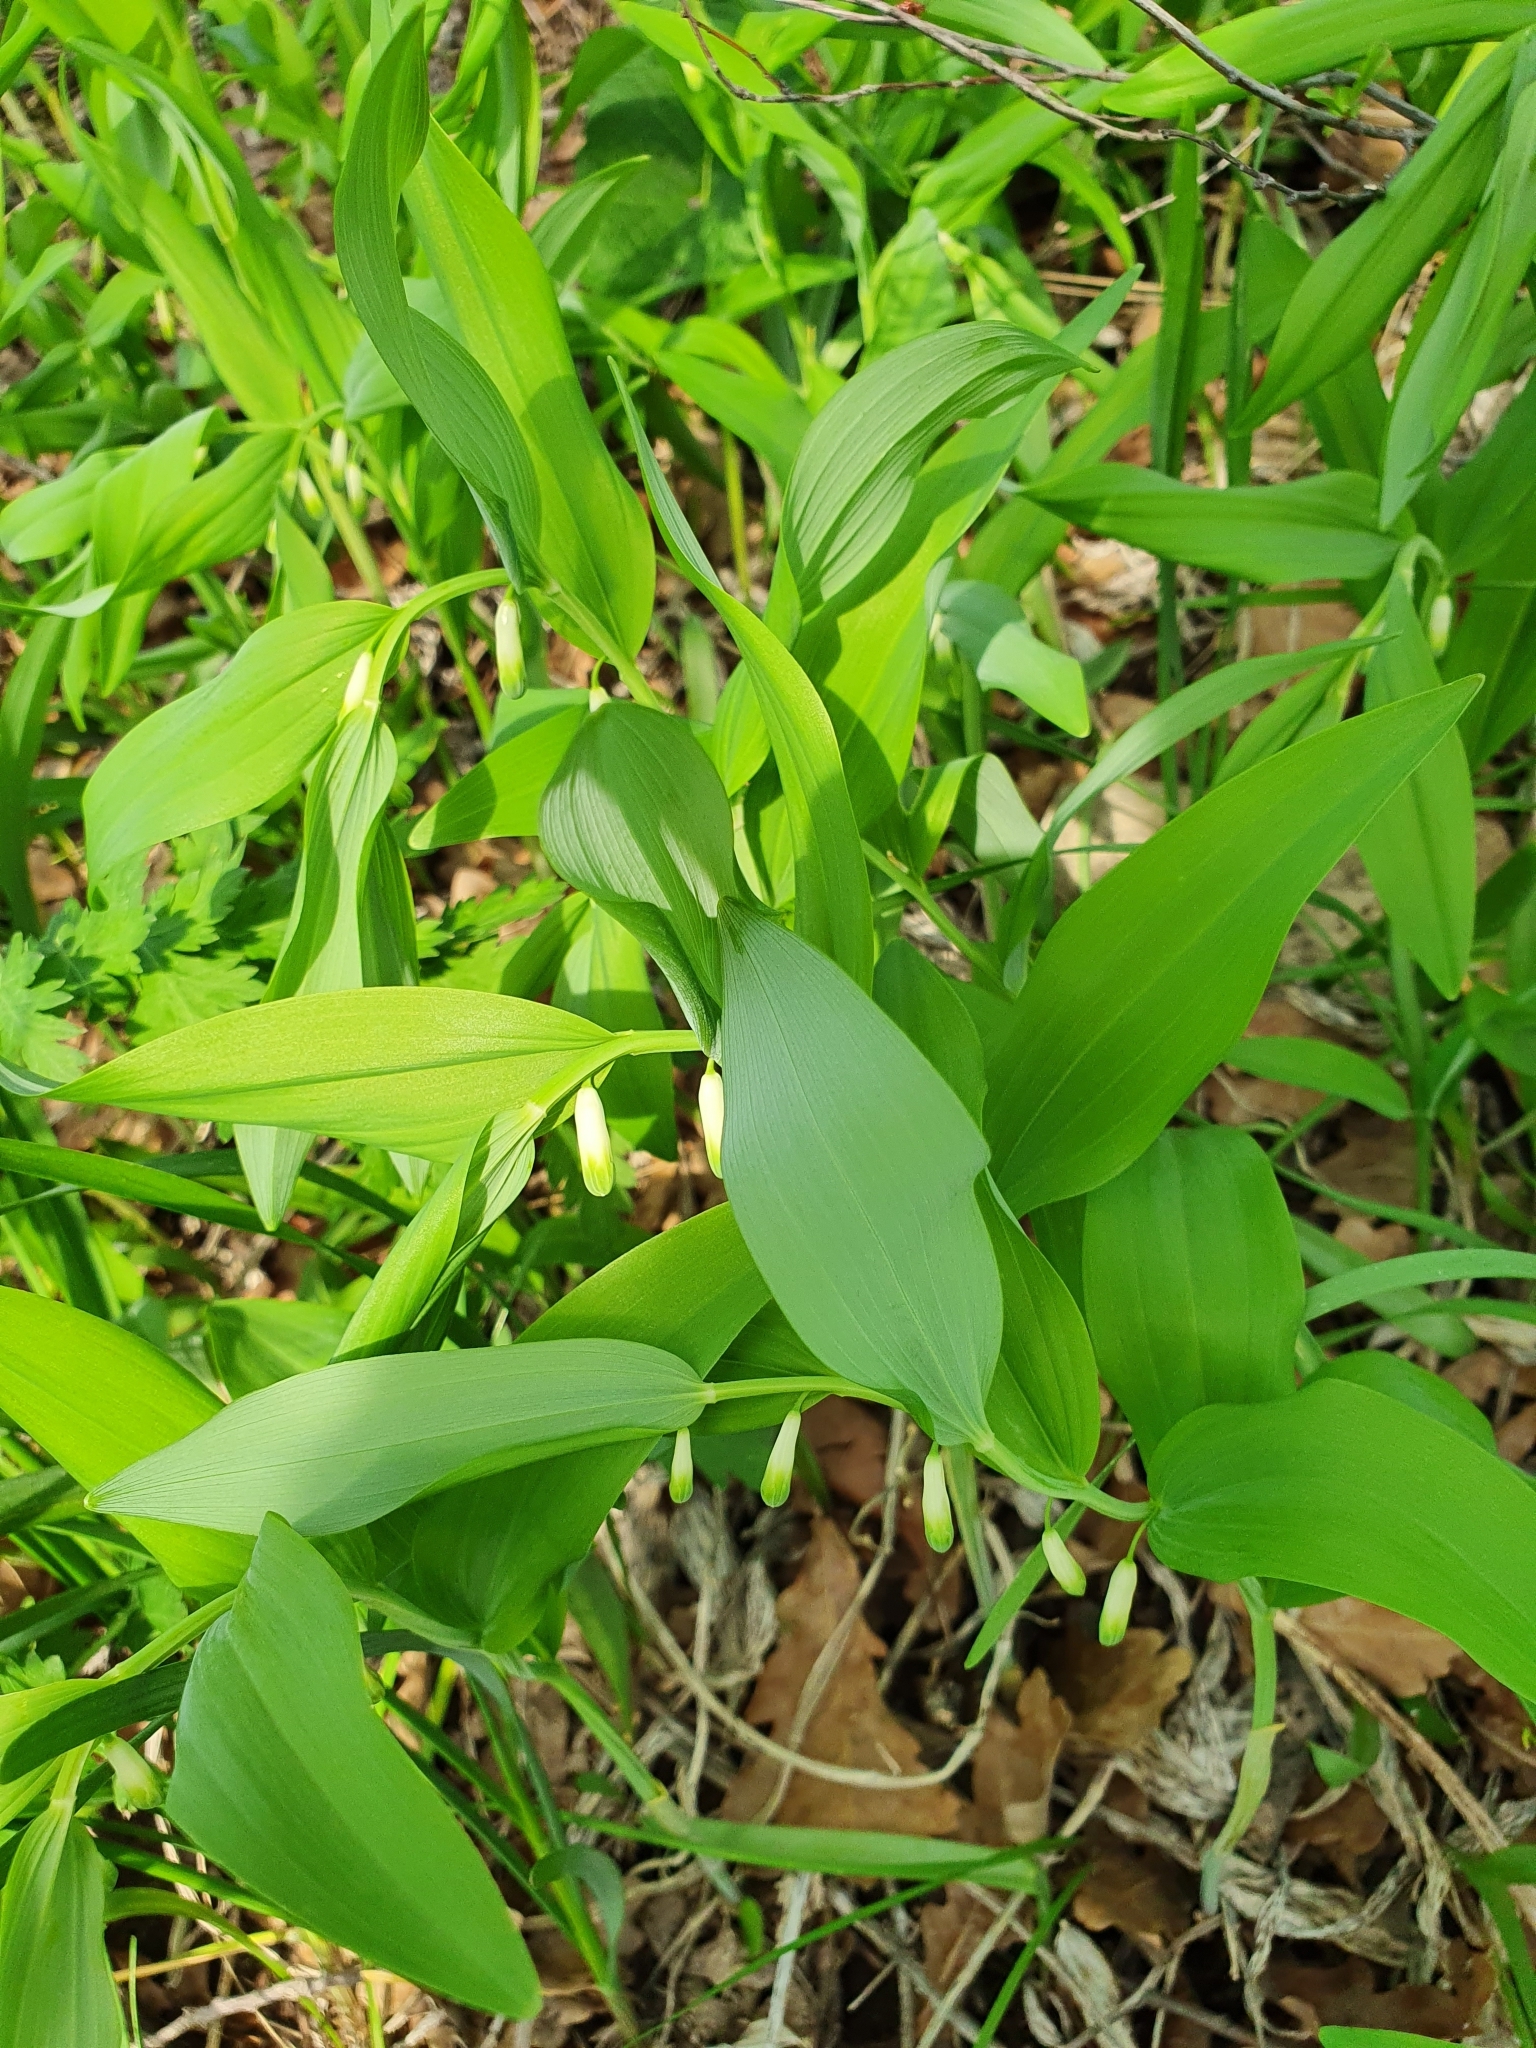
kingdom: Plantae
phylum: Tracheophyta
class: Liliopsida
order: Asparagales
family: Asparagaceae
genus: Polygonatum
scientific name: Polygonatum odoratum
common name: Angular solomon's-seal
